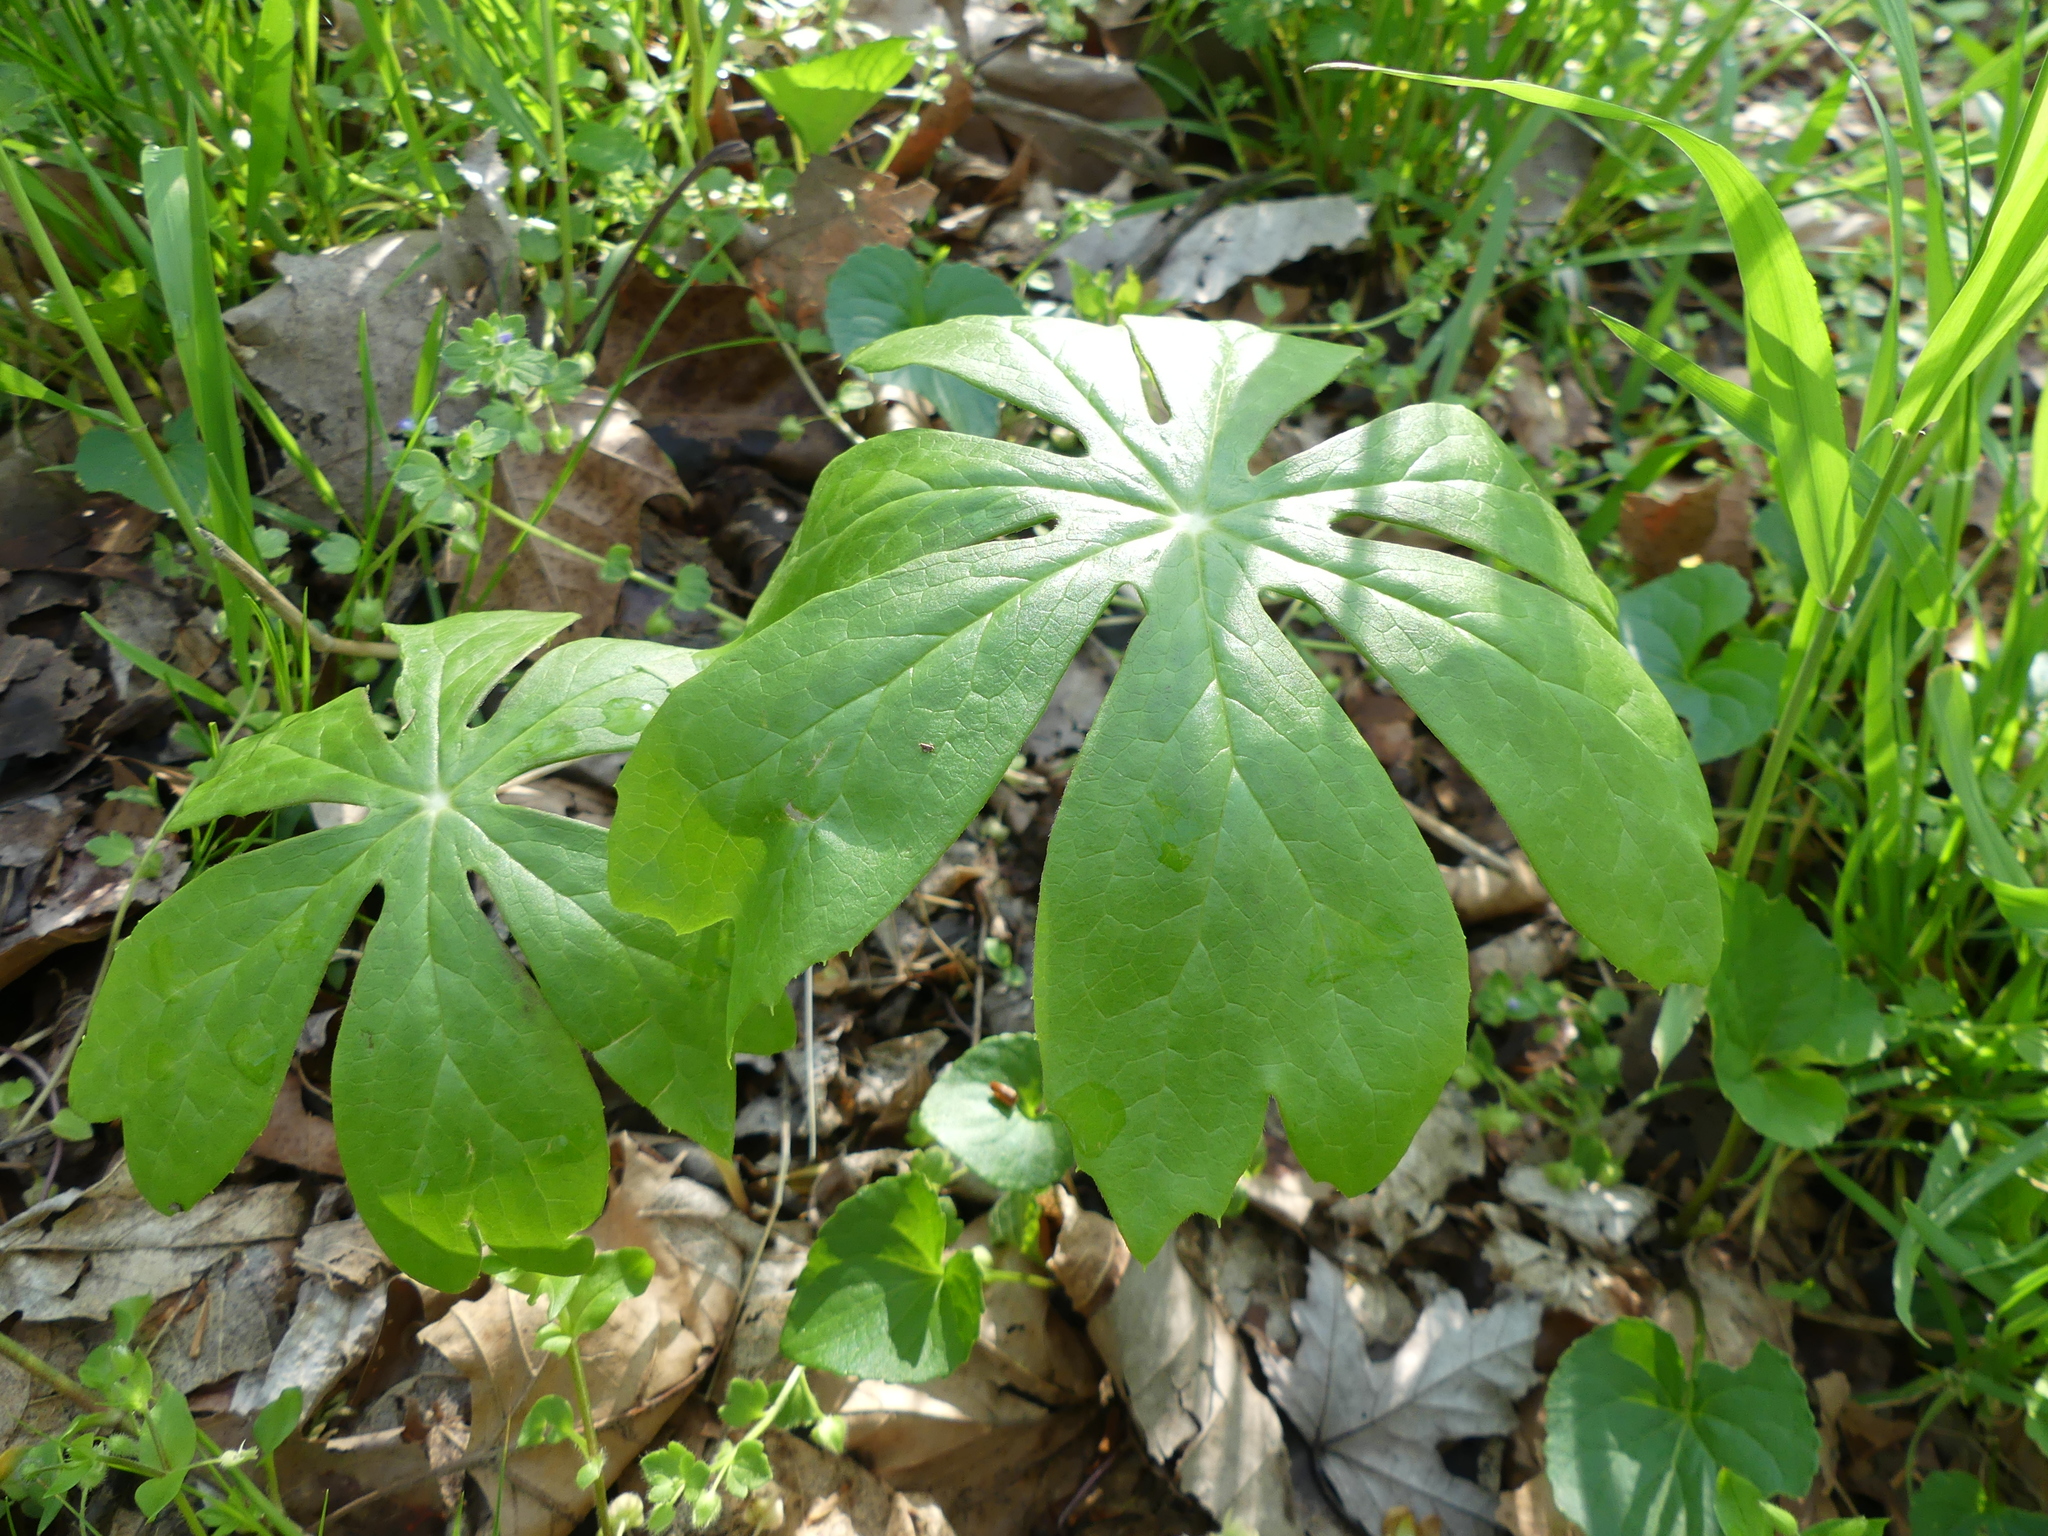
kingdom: Plantae
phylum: Tracheophyta
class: Magnoliopsida
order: Ranunculales
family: Berberidaceae
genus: Podophyllum
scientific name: Podophyllum peltatum
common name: Wild mandrake
